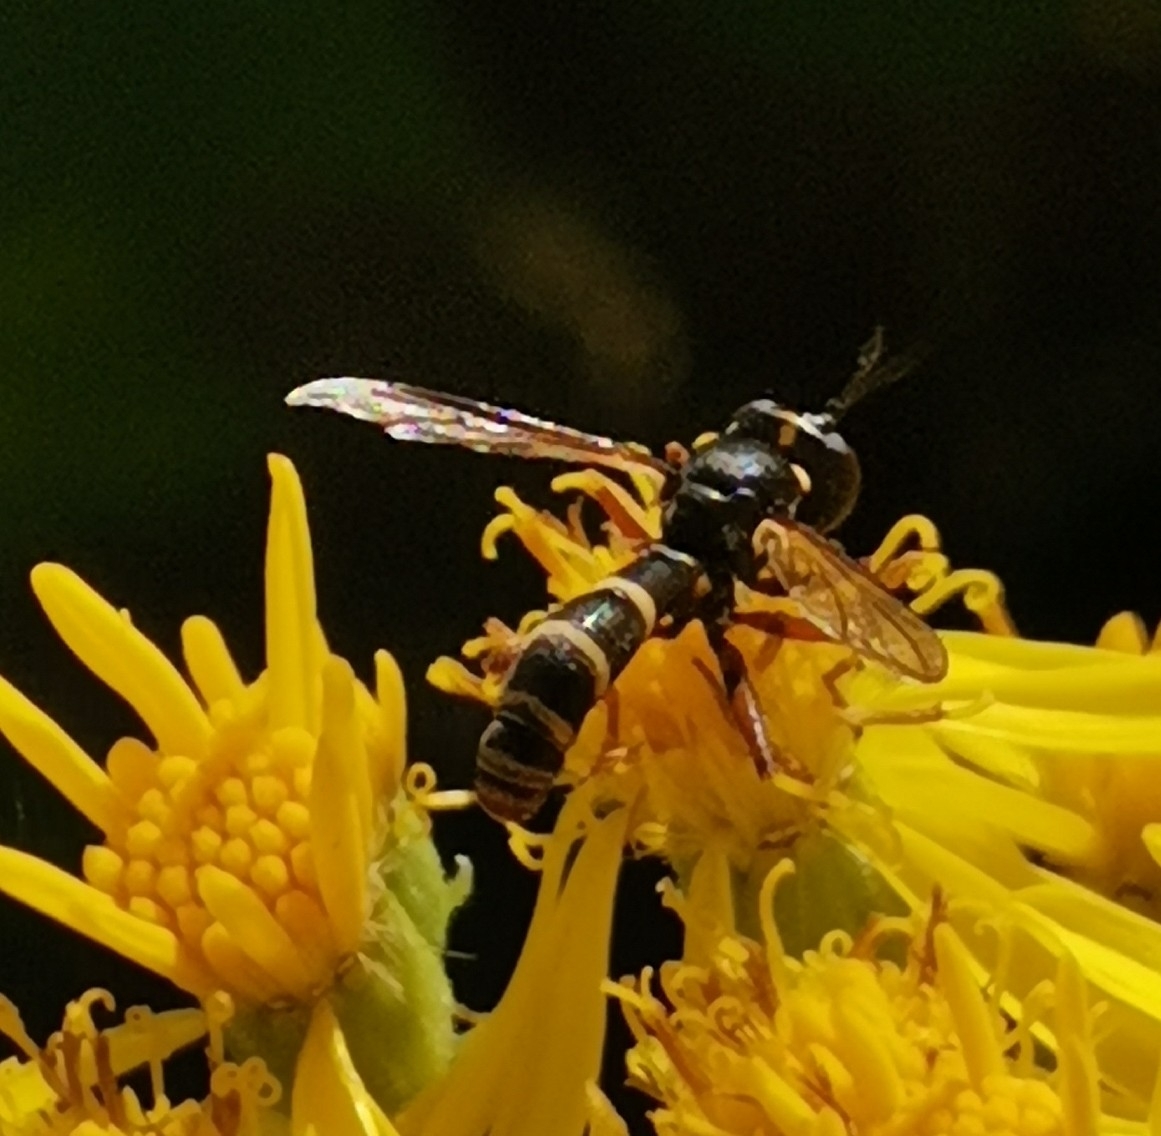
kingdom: Animalia
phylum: Arthropoda
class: Insecta
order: Diptera
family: Conopidae
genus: Conops
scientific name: Conops quadrifasciatus
